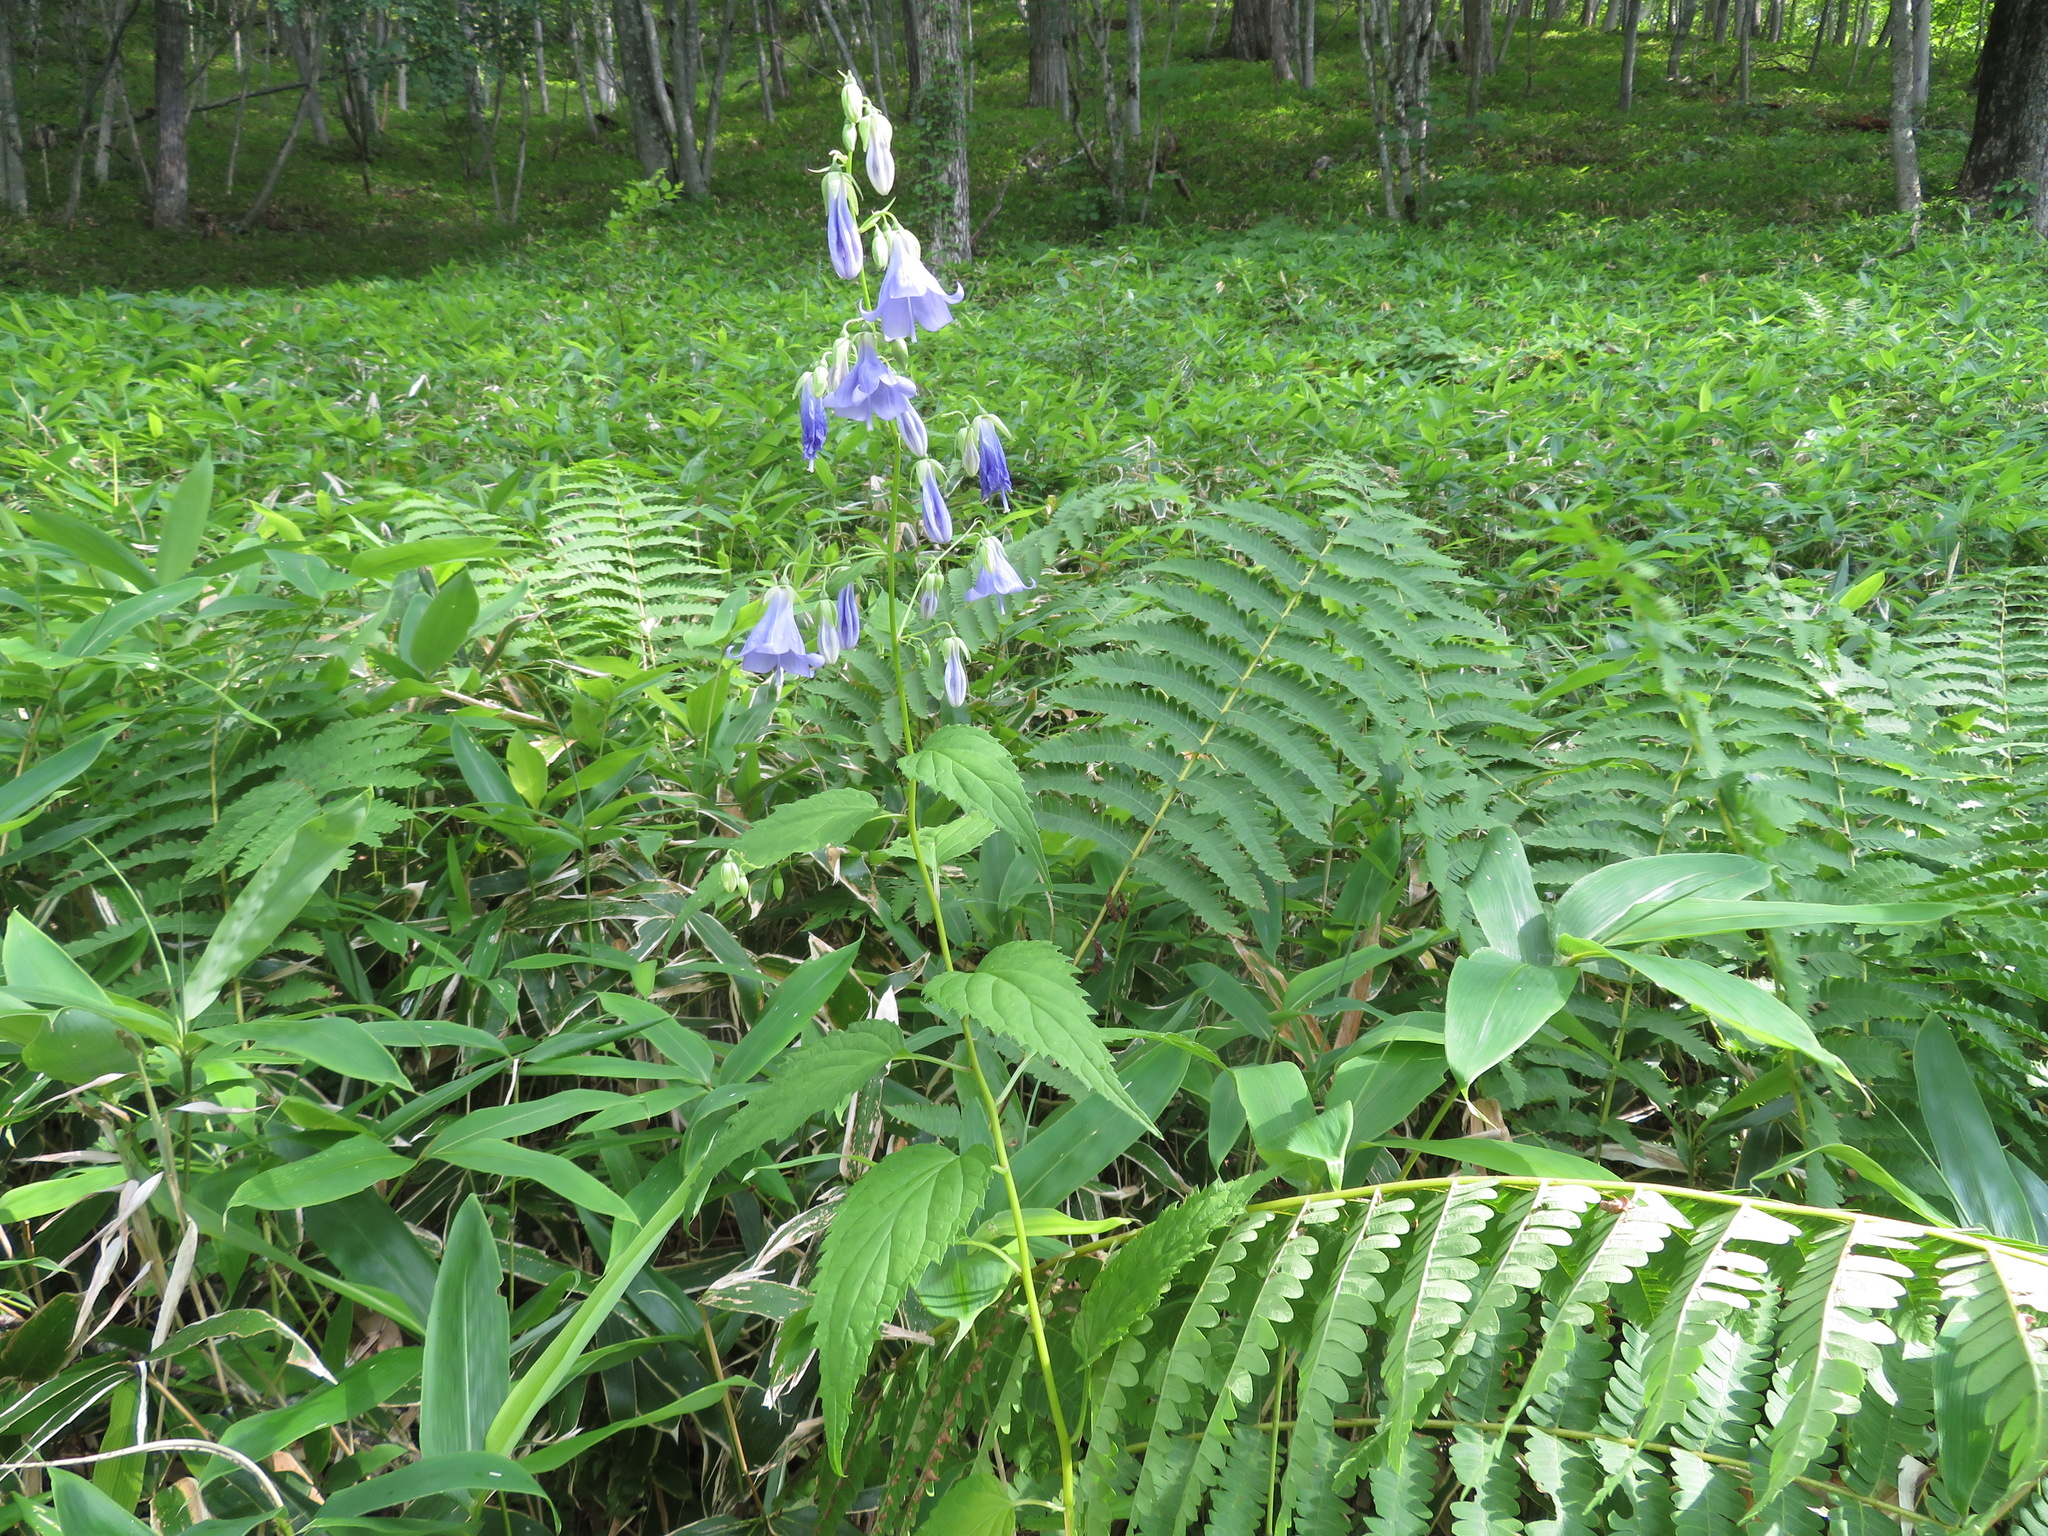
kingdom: Plantae
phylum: Tracheophyta
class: Magnoliopsida
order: Asterales
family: Campanulaceae
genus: Adenophora
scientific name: Adenophora remotiflora
